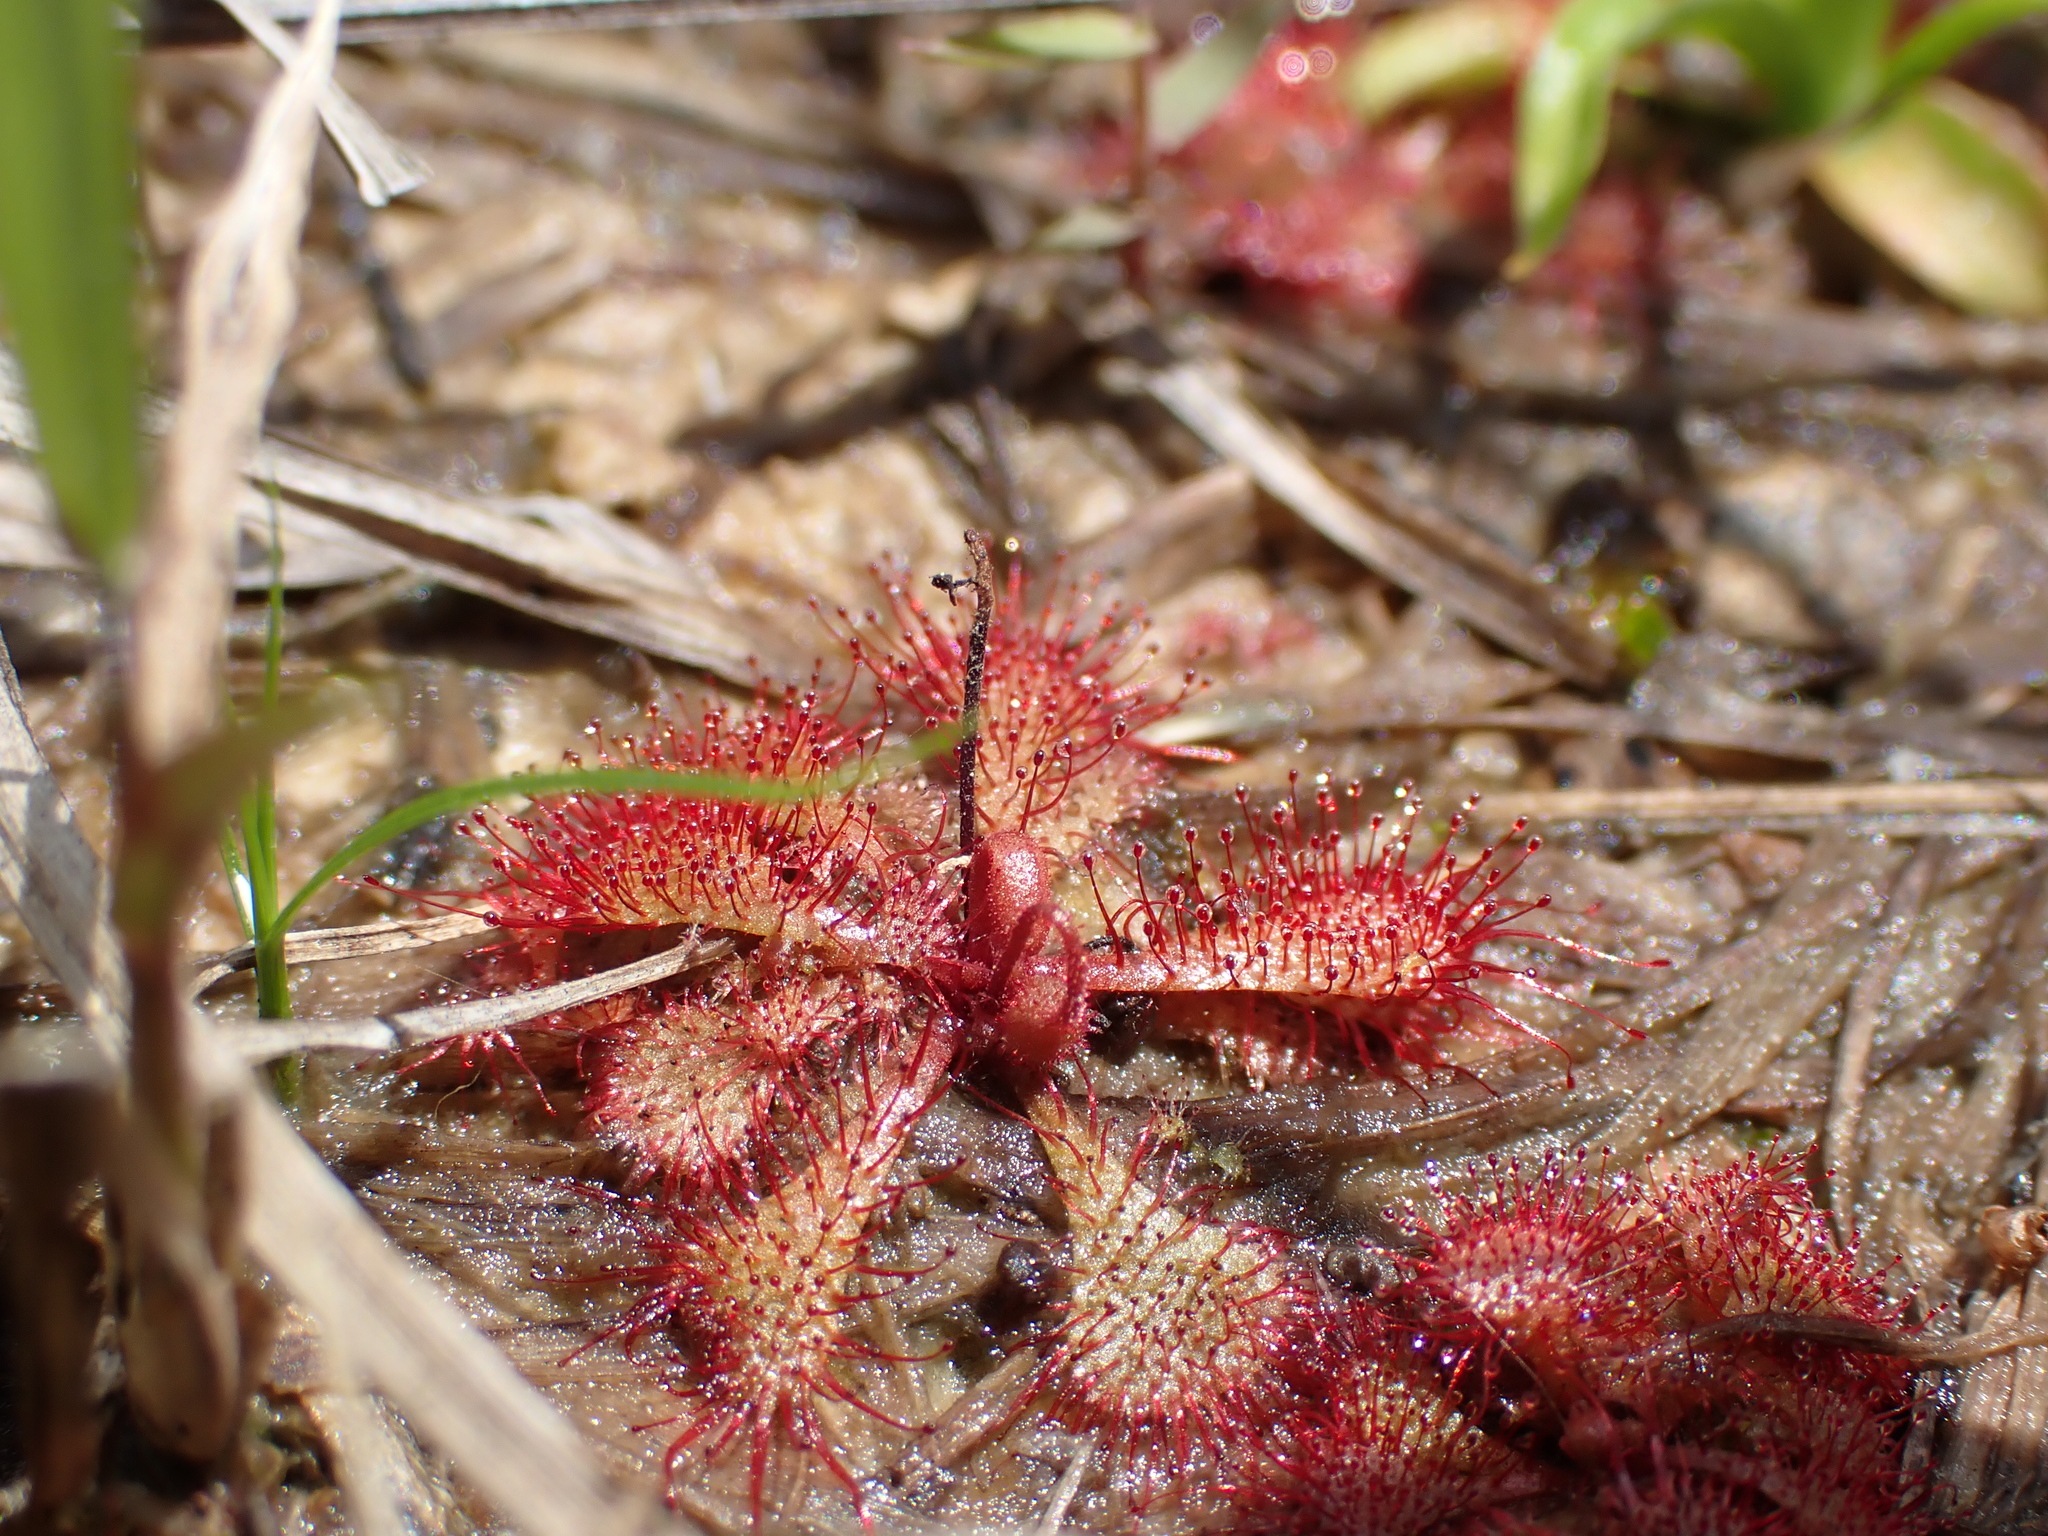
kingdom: Plantae
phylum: Tracheophyta
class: Magnoliopsida
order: Caryophyllales
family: Droseraceae
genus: Drosera
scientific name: Drosera brevifolia
